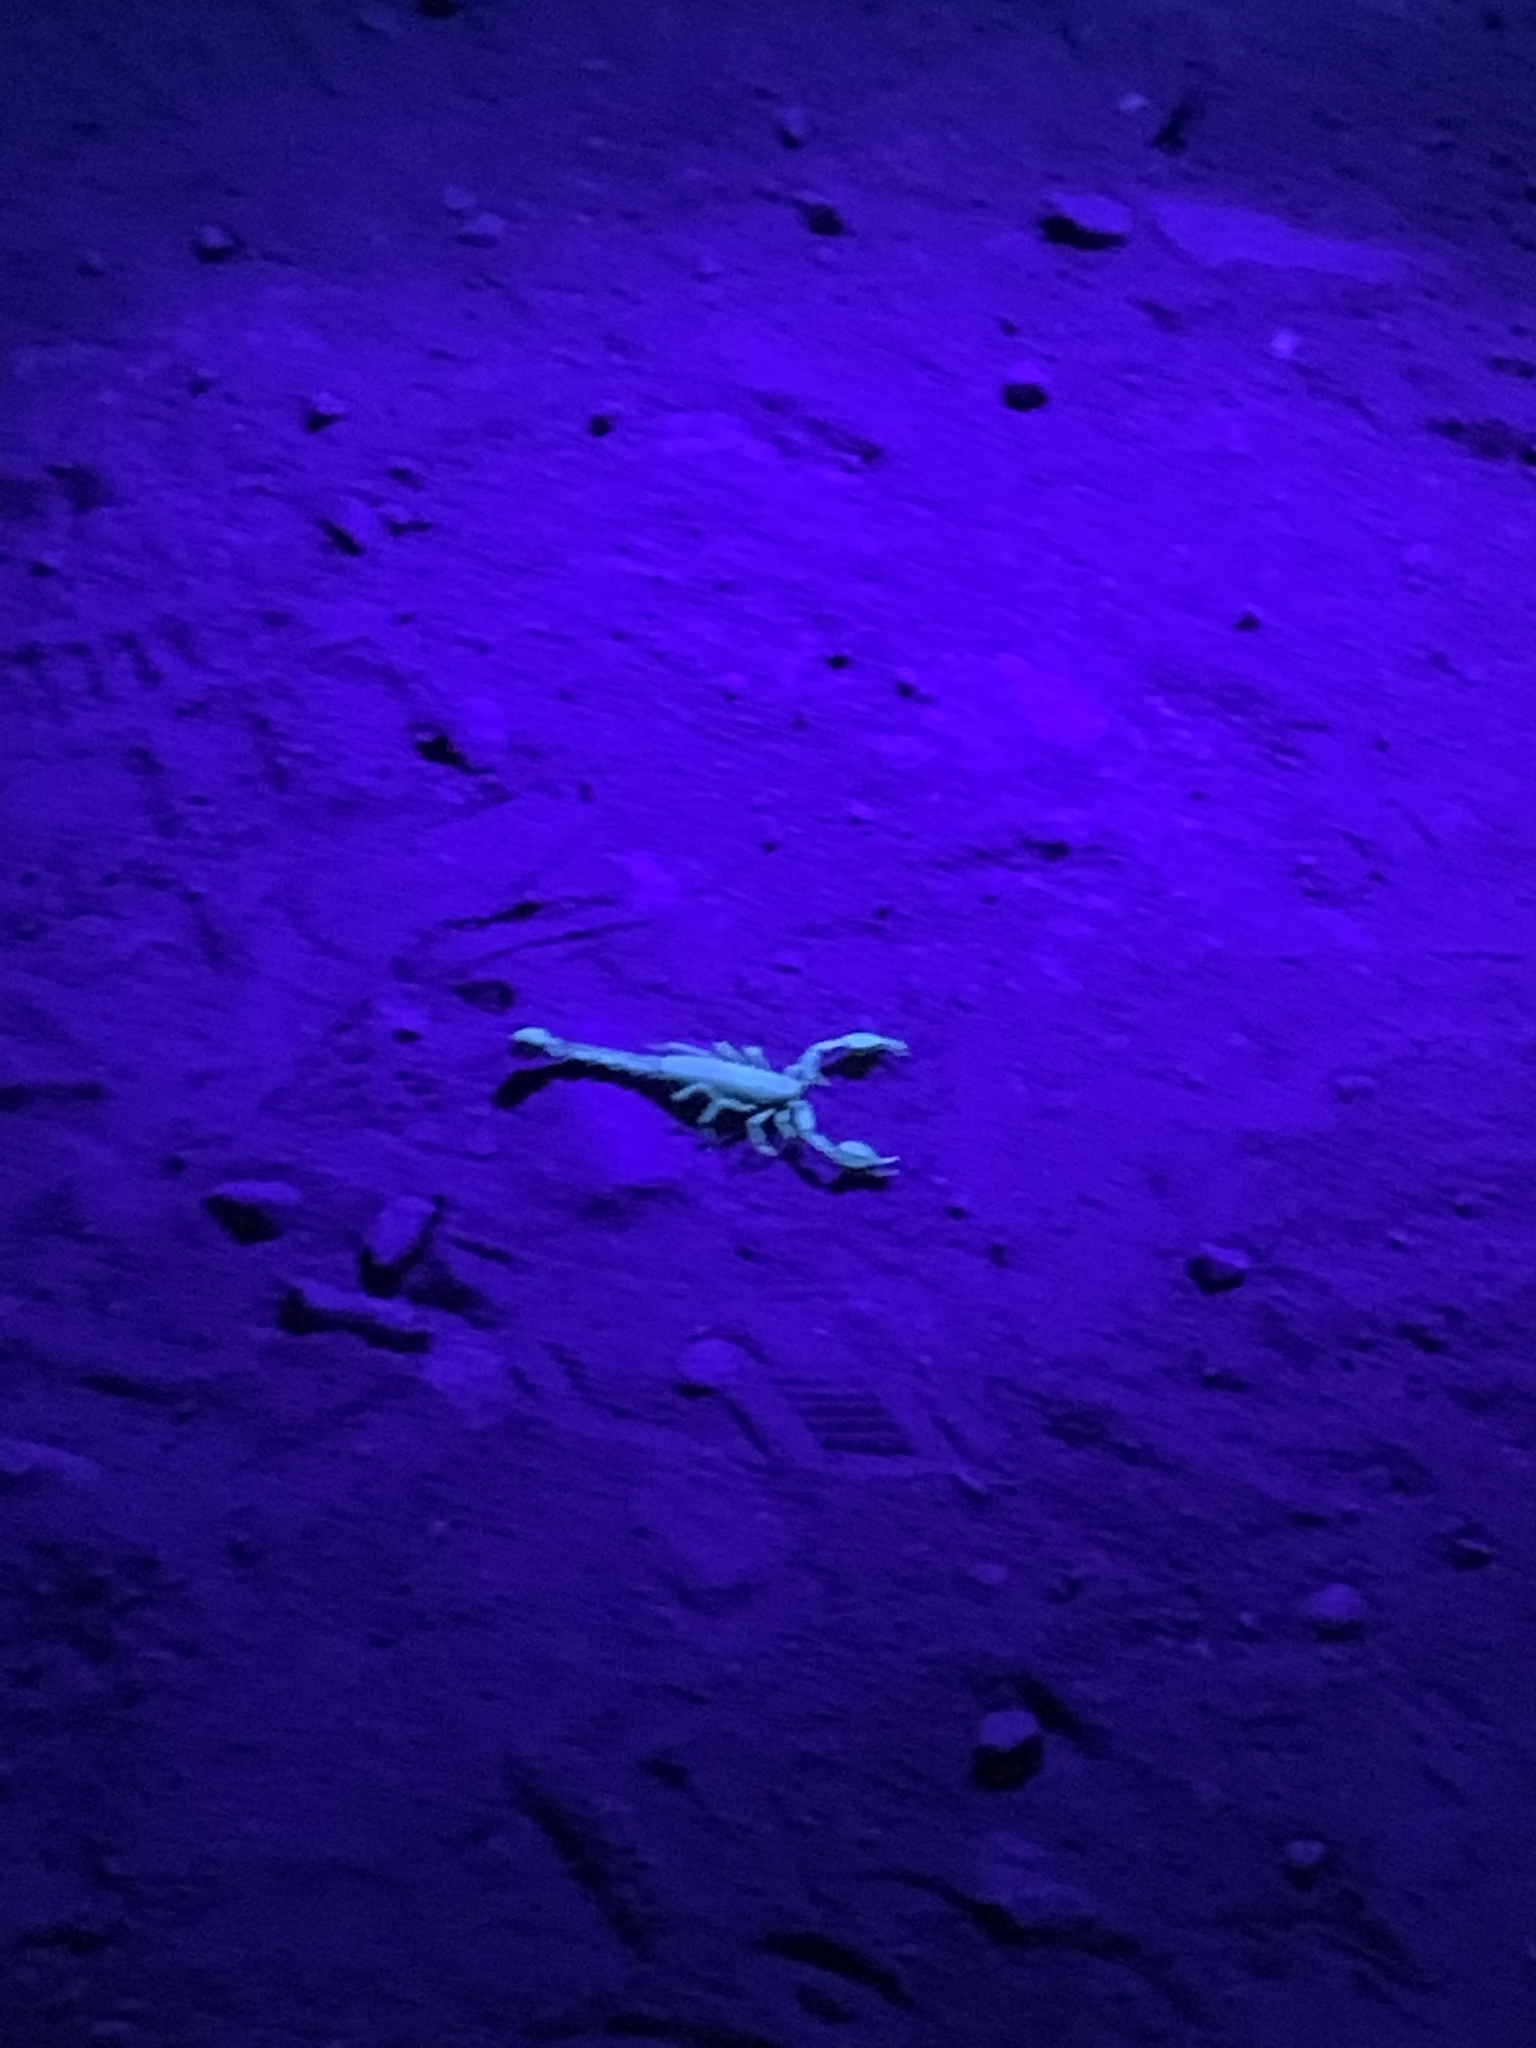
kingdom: Animalia
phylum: Arthropoda
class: Arachnida
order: Scorpiones
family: Vaejovidae
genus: Uroctonites
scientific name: Uroctonites montereus
